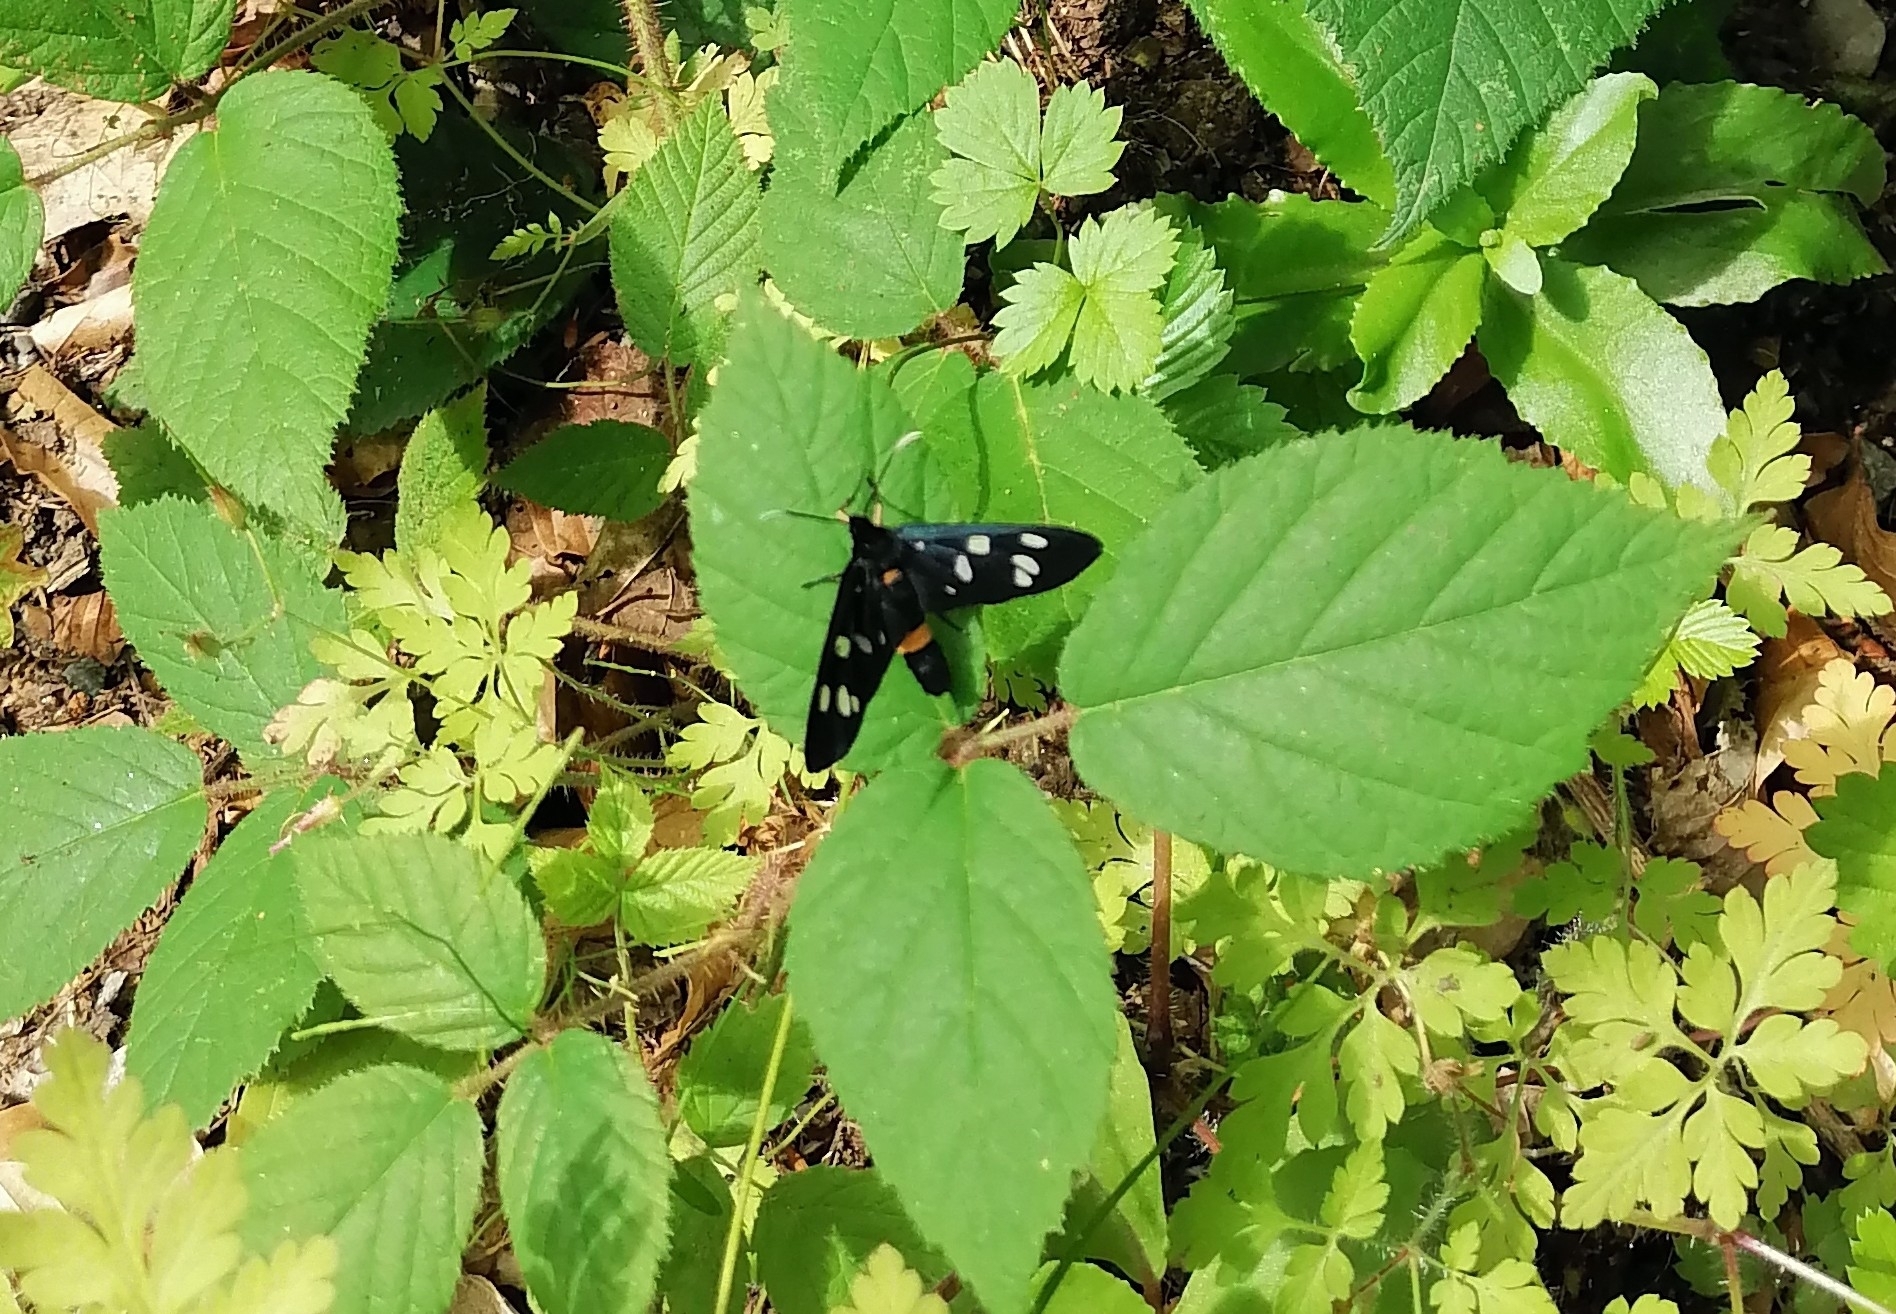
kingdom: Animalia
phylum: Arthropoda
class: Insecta
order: Lepidoptera
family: Erebidae
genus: Amata
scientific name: Amata phegea
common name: Nine-spotted
